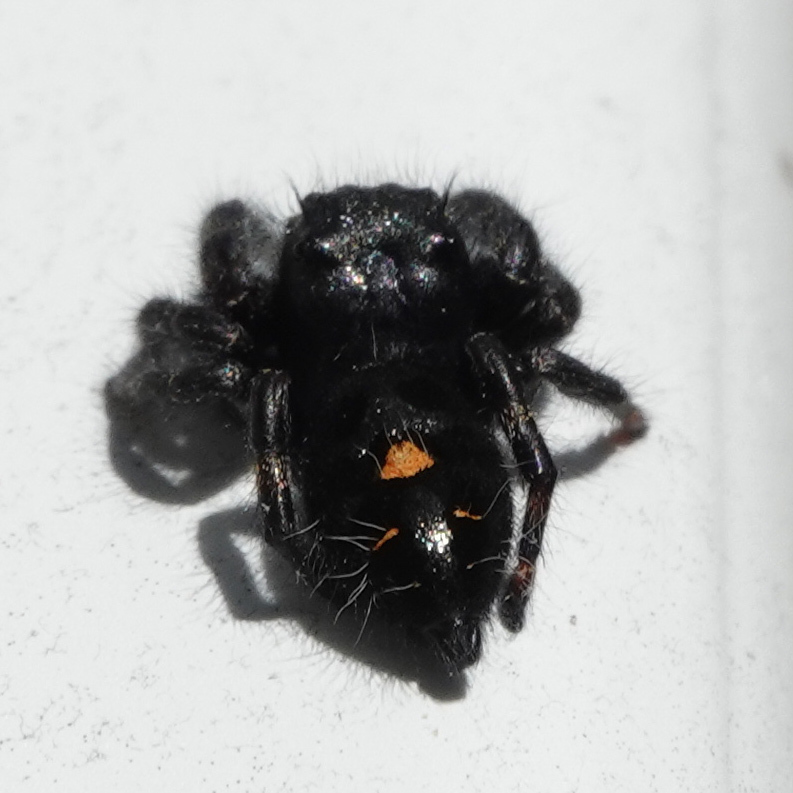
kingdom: Animalia
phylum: Arthropoda
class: Arachnida
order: Araneae
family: Salticidae
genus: Phidippus
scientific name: Phidippus audax
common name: Bold jumper
